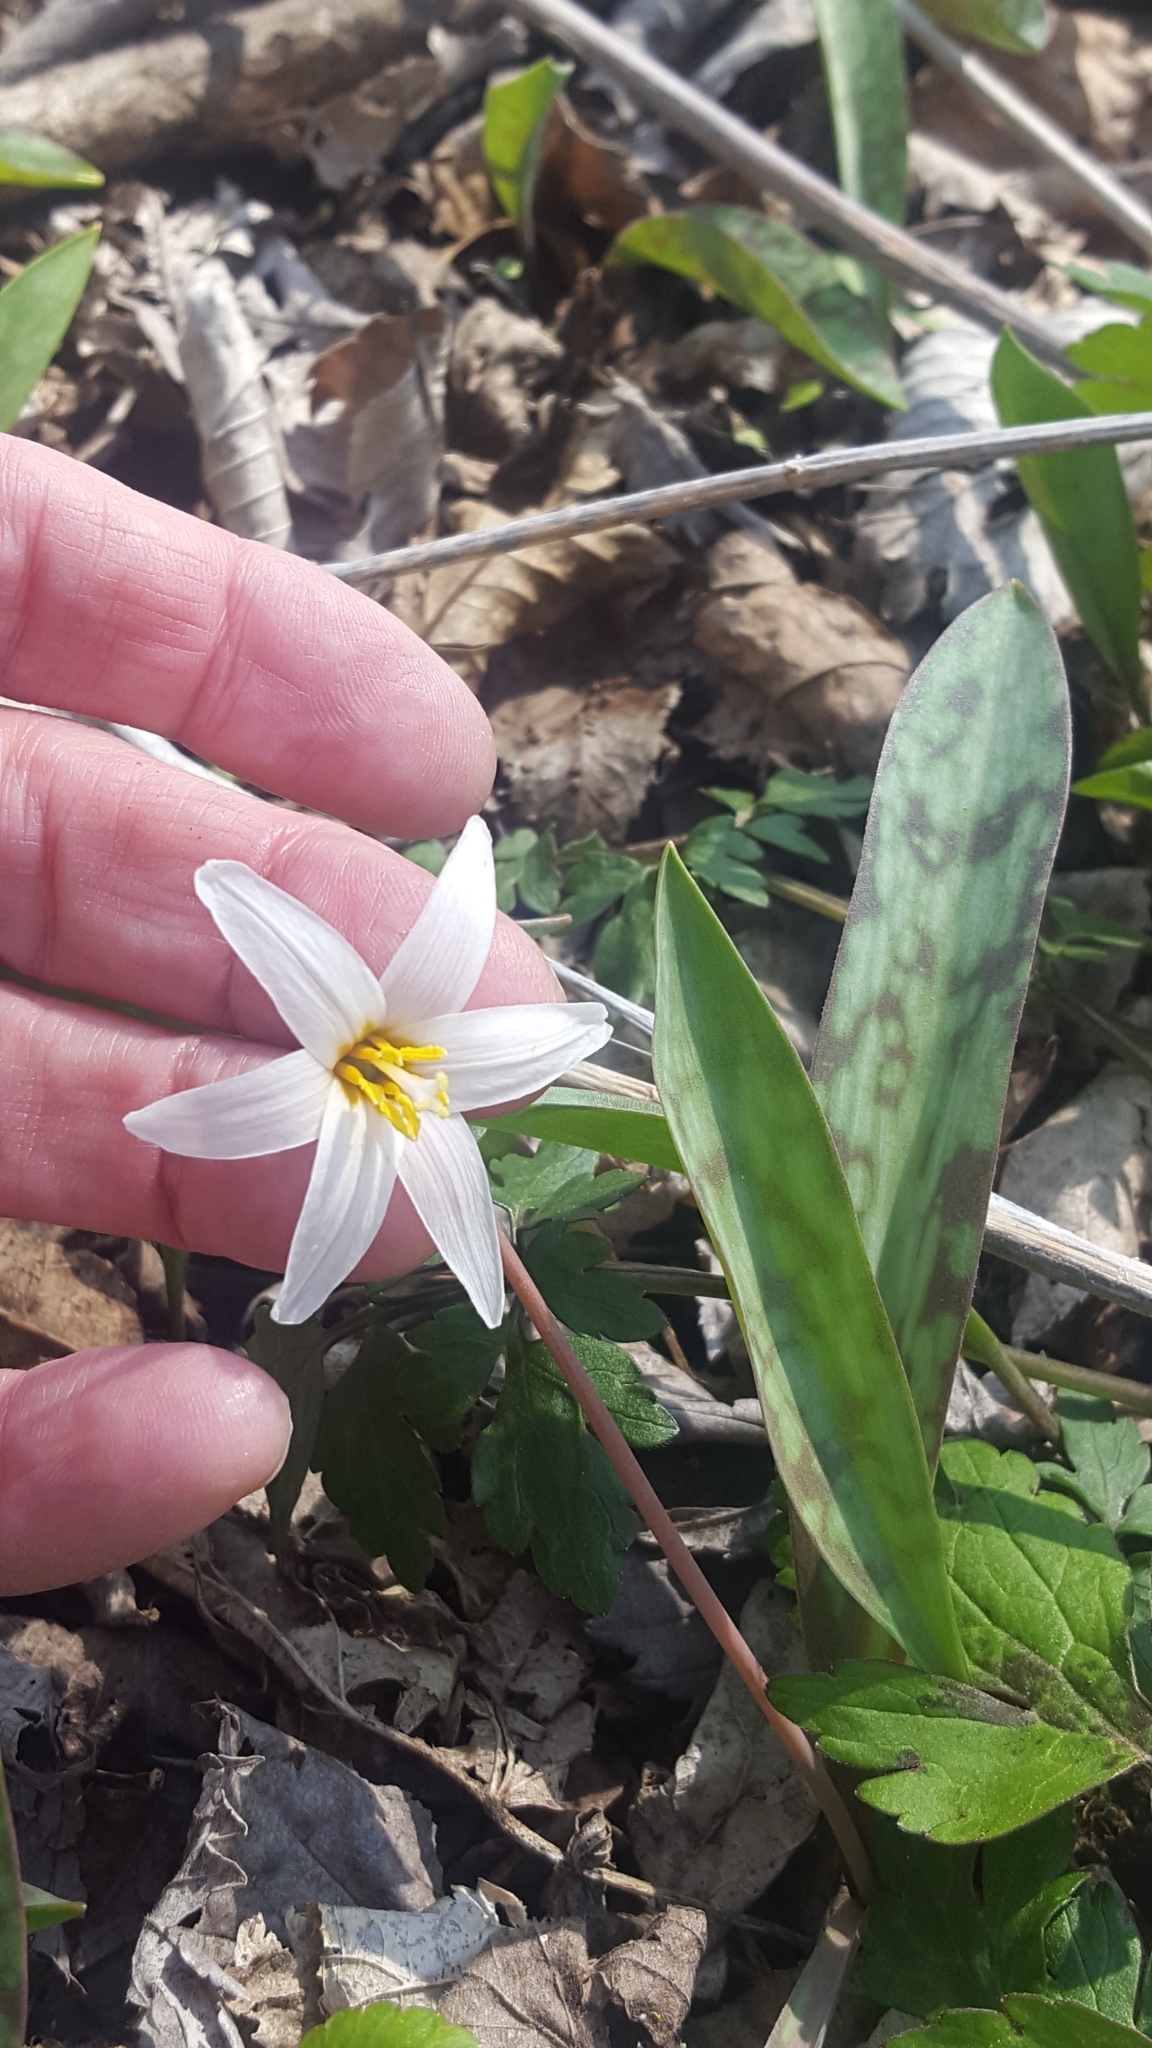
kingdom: Plantae
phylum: Tracheophyta
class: Liliopsida
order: Liliales
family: Liliaceae
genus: Erythronium
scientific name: Erythronium albidum
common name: White trout-lily
